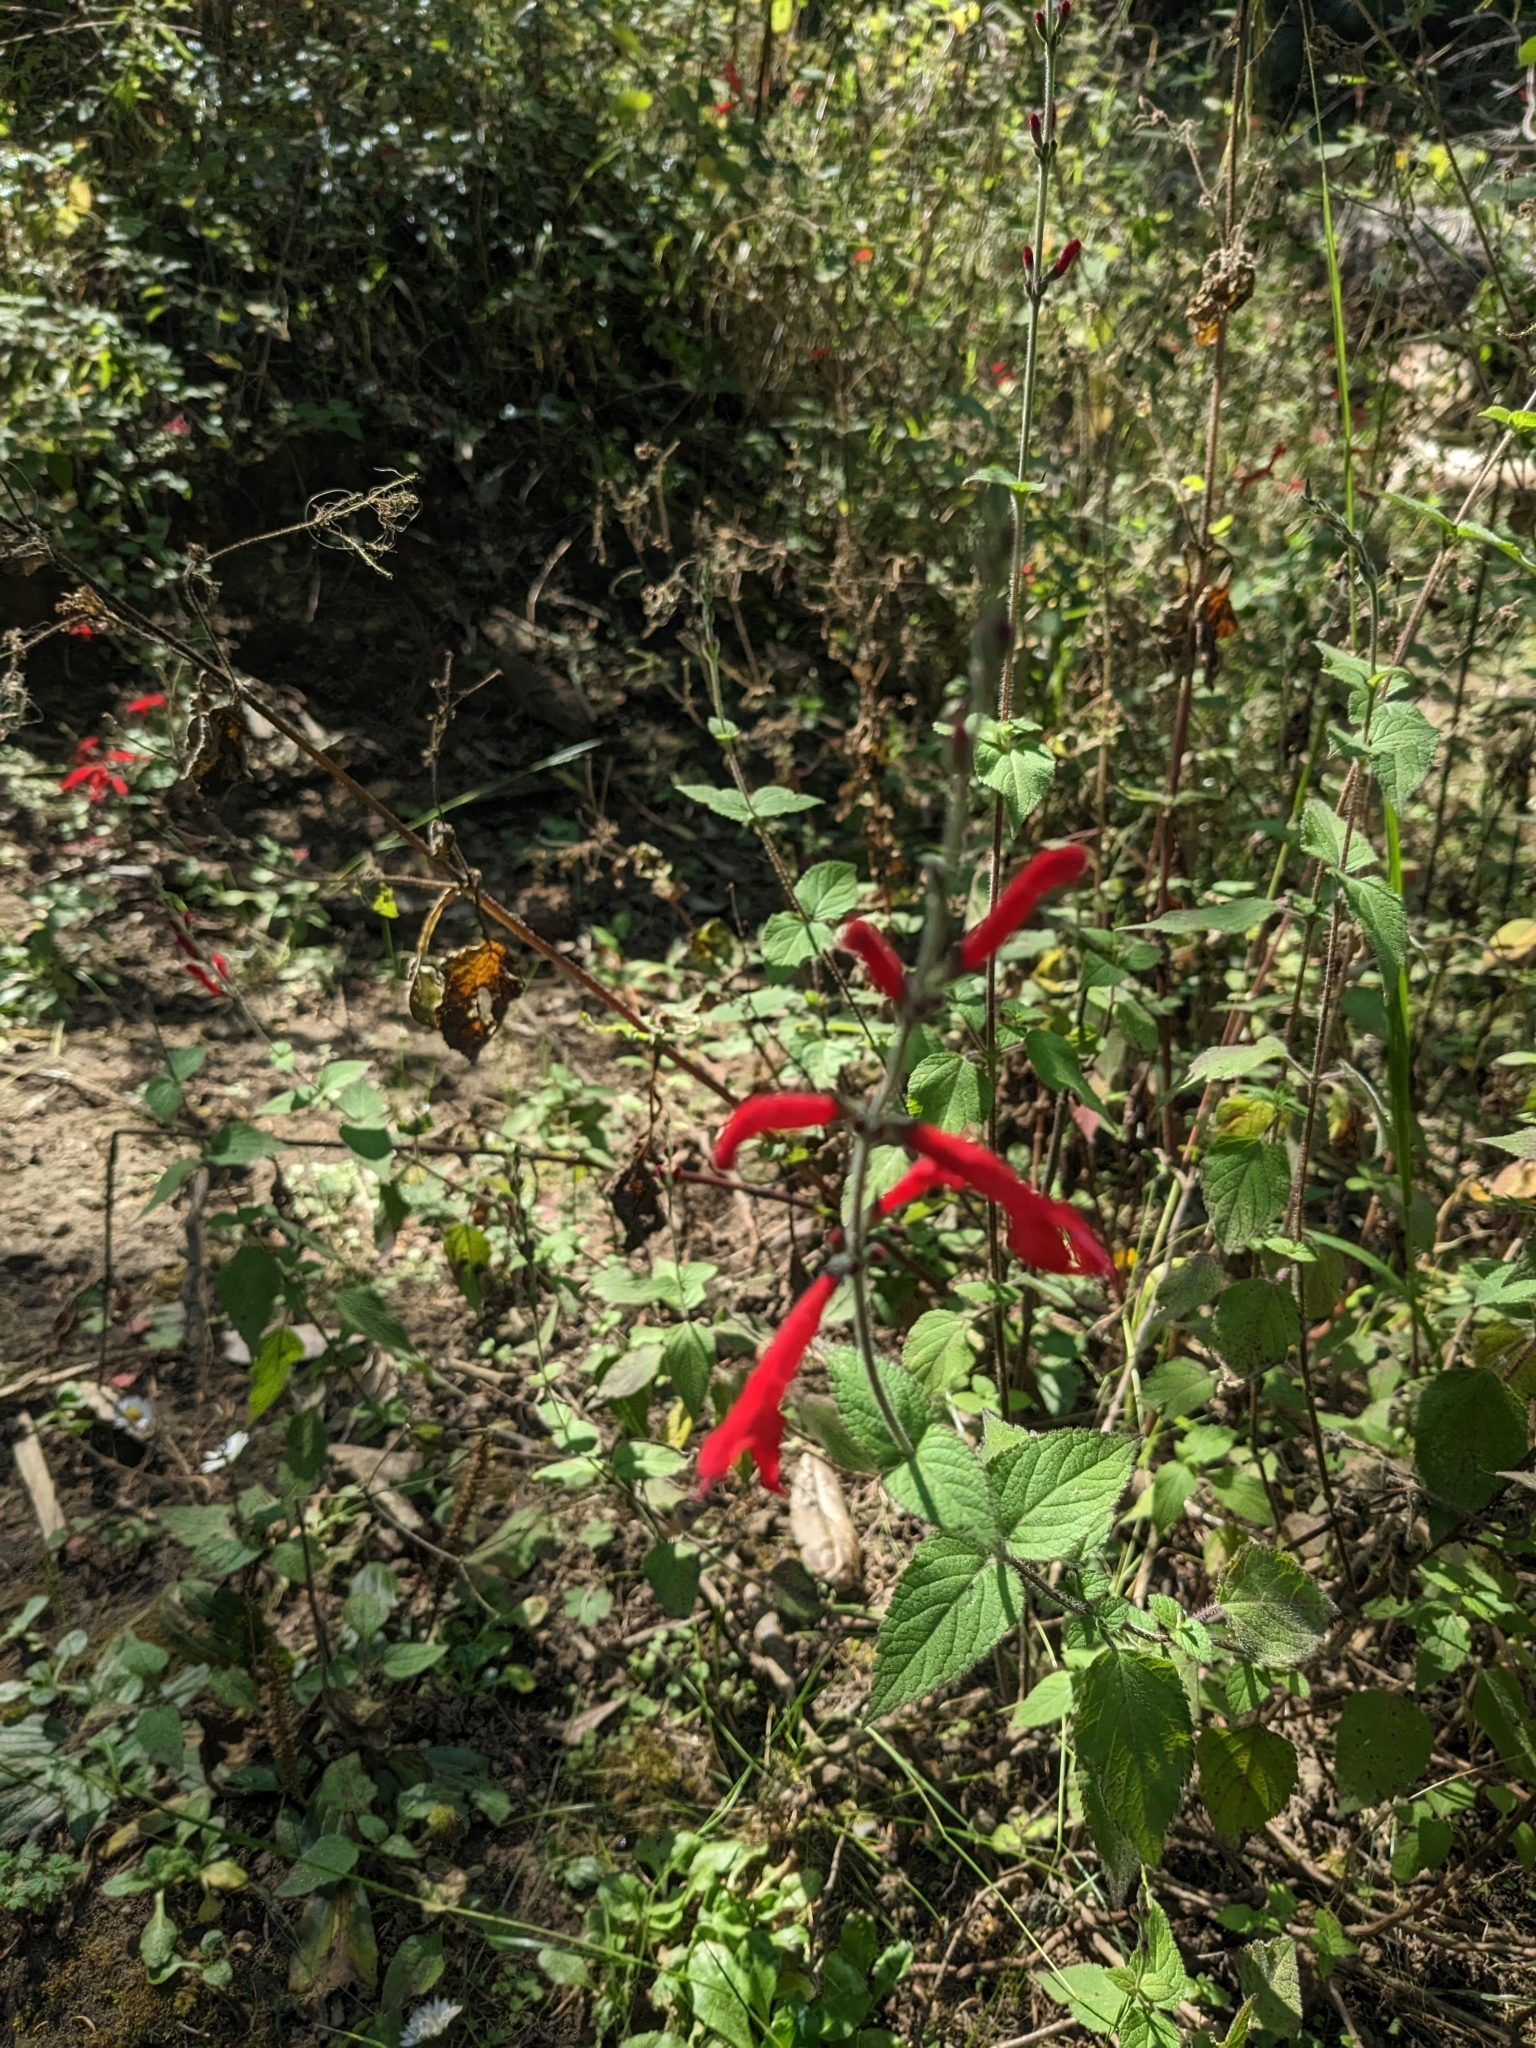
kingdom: Plantae
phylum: Tracheophyta
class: Magnoliopsida
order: Lamiales
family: Lamiaceae
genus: Salvia
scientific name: Salvia elegans
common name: Pineapple sage
